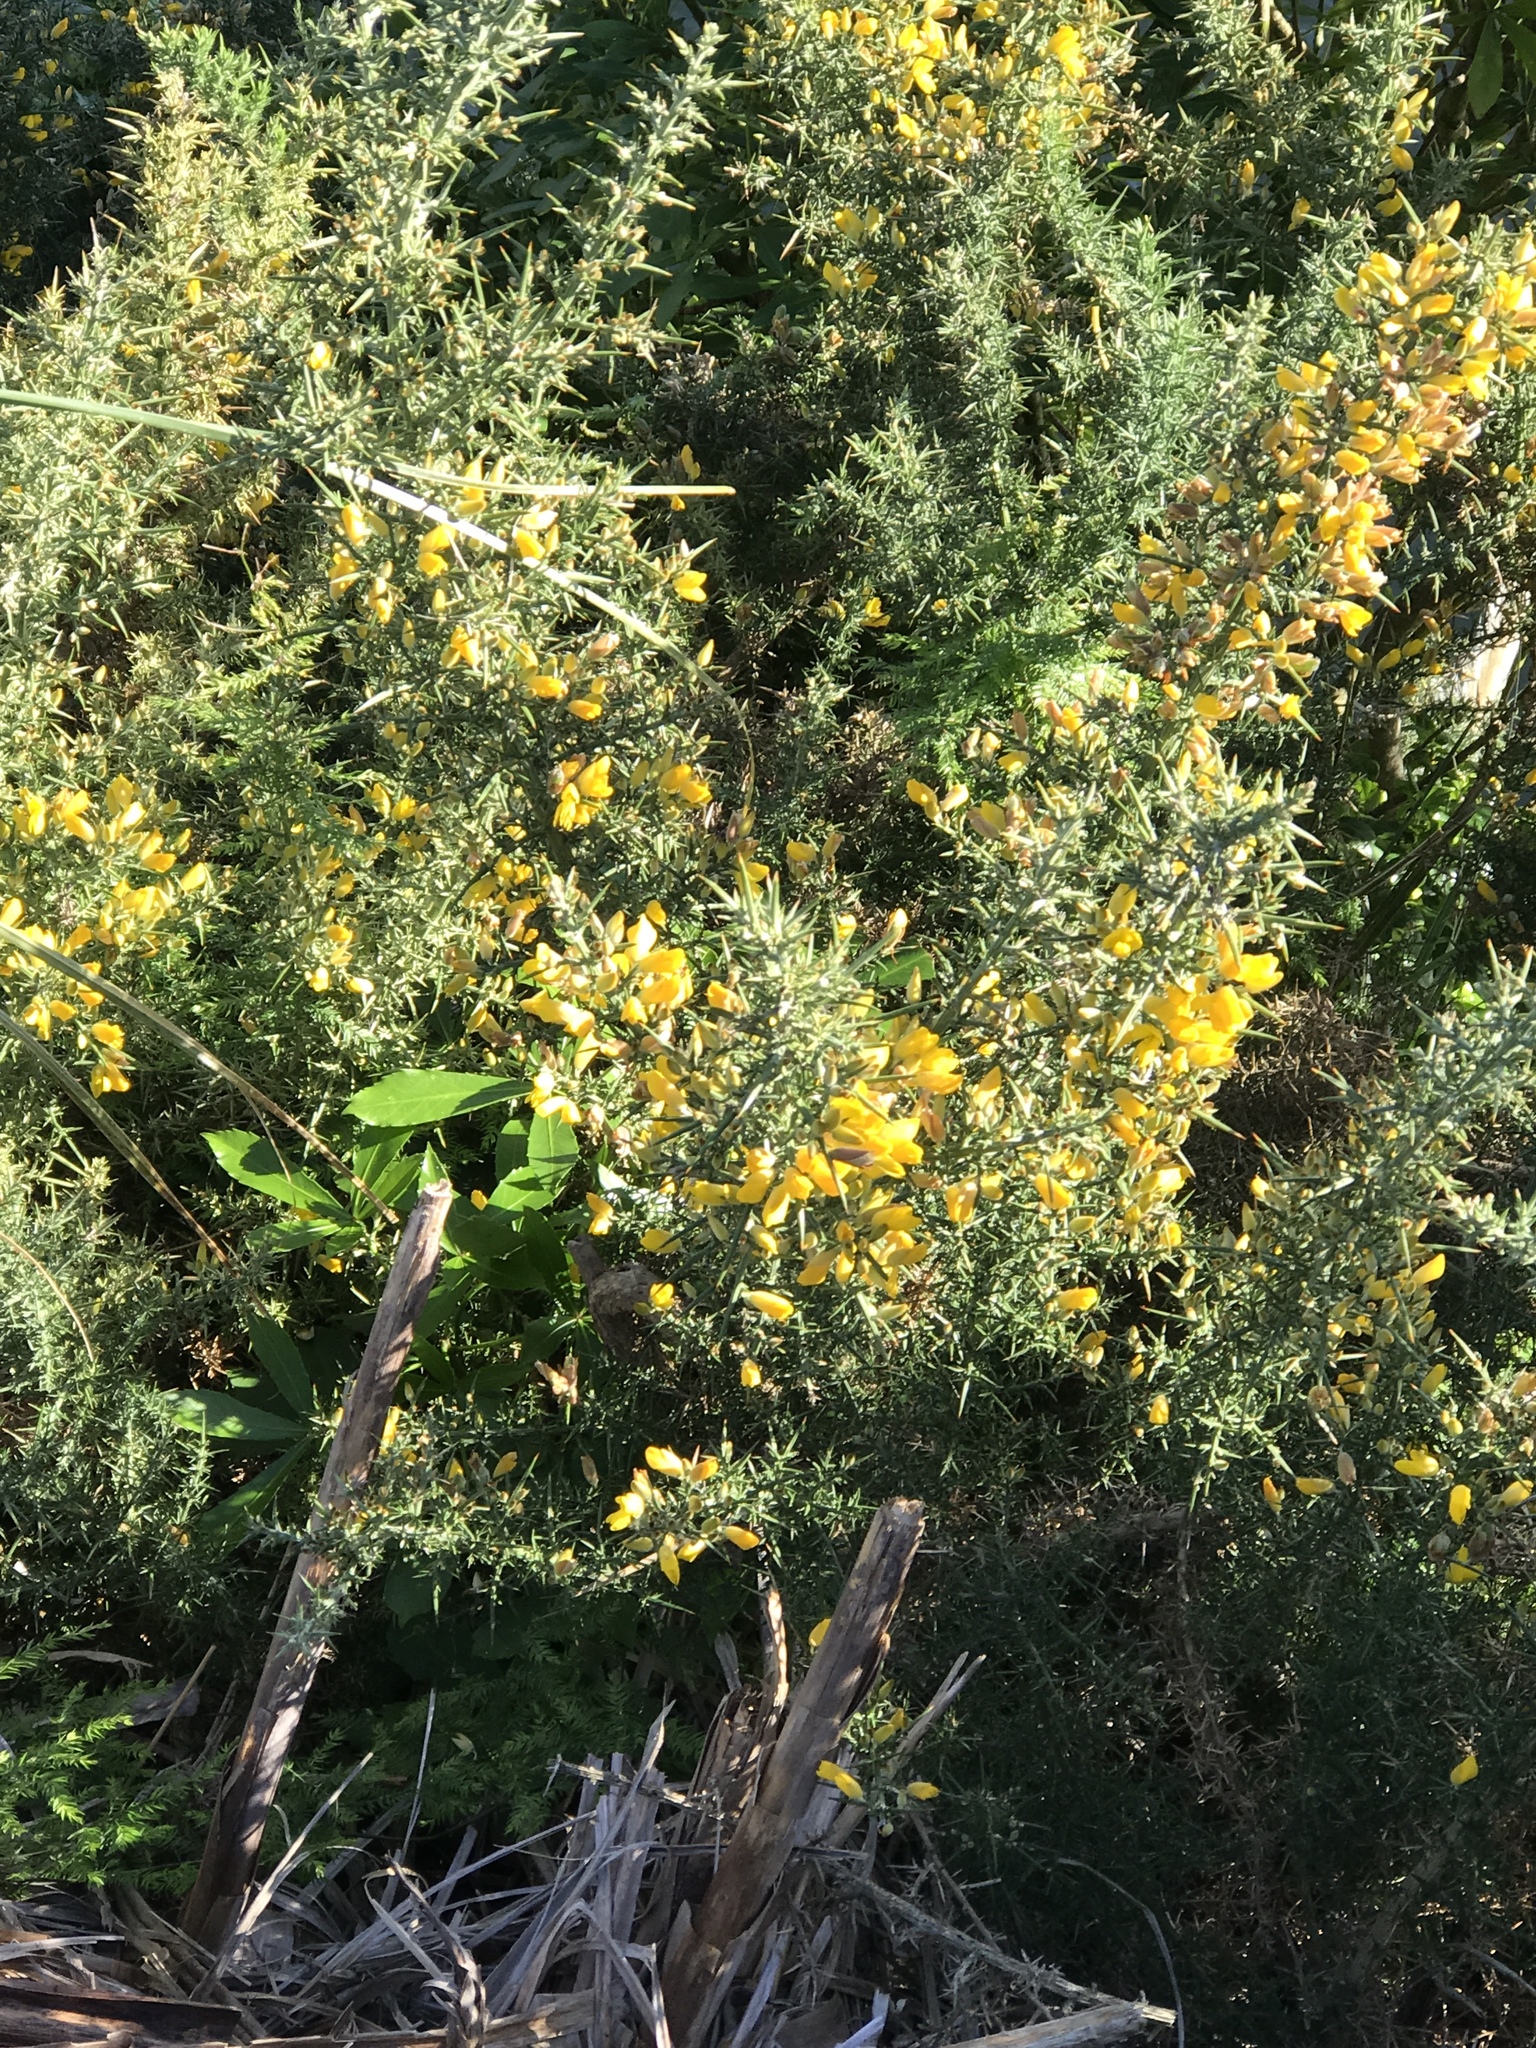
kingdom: Plantae
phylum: Tracheophyta
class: Magnoliopsida
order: Fabales
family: Fabaceae
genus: Ulex
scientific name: Ulex europaeus
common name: Common gorse
